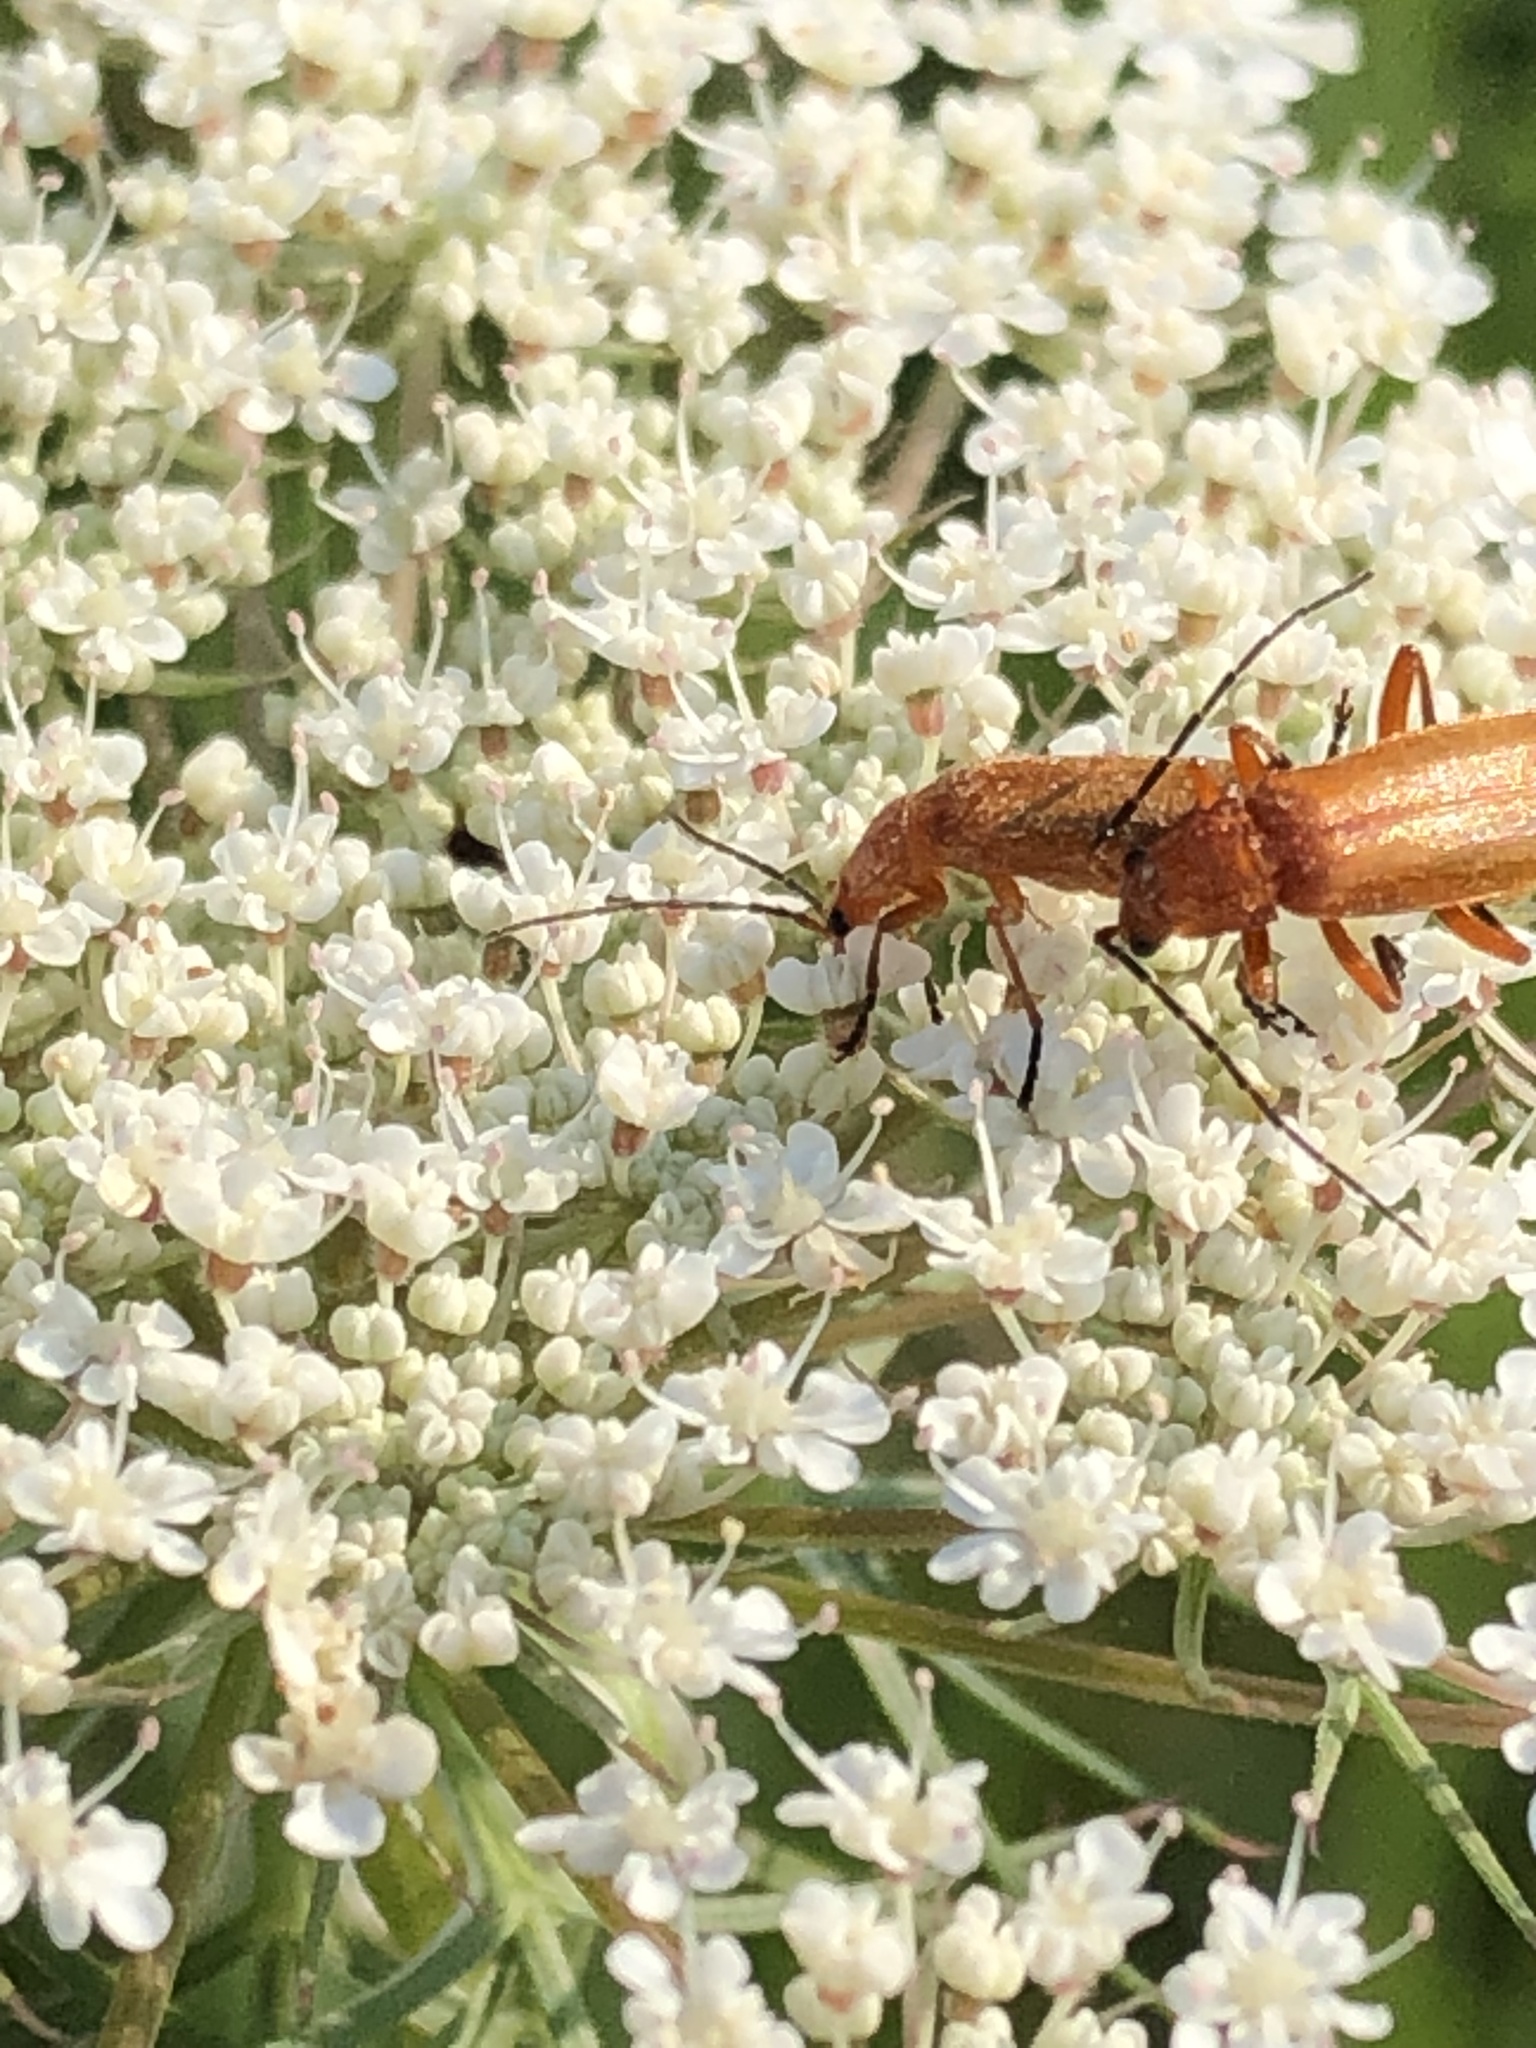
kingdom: Animalia
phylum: Arthropoda
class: Insecta
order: Coleoptera
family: Cantharidae
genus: Rhagonycha
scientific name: Rhagonycha fulva
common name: Common red soldier beetle
